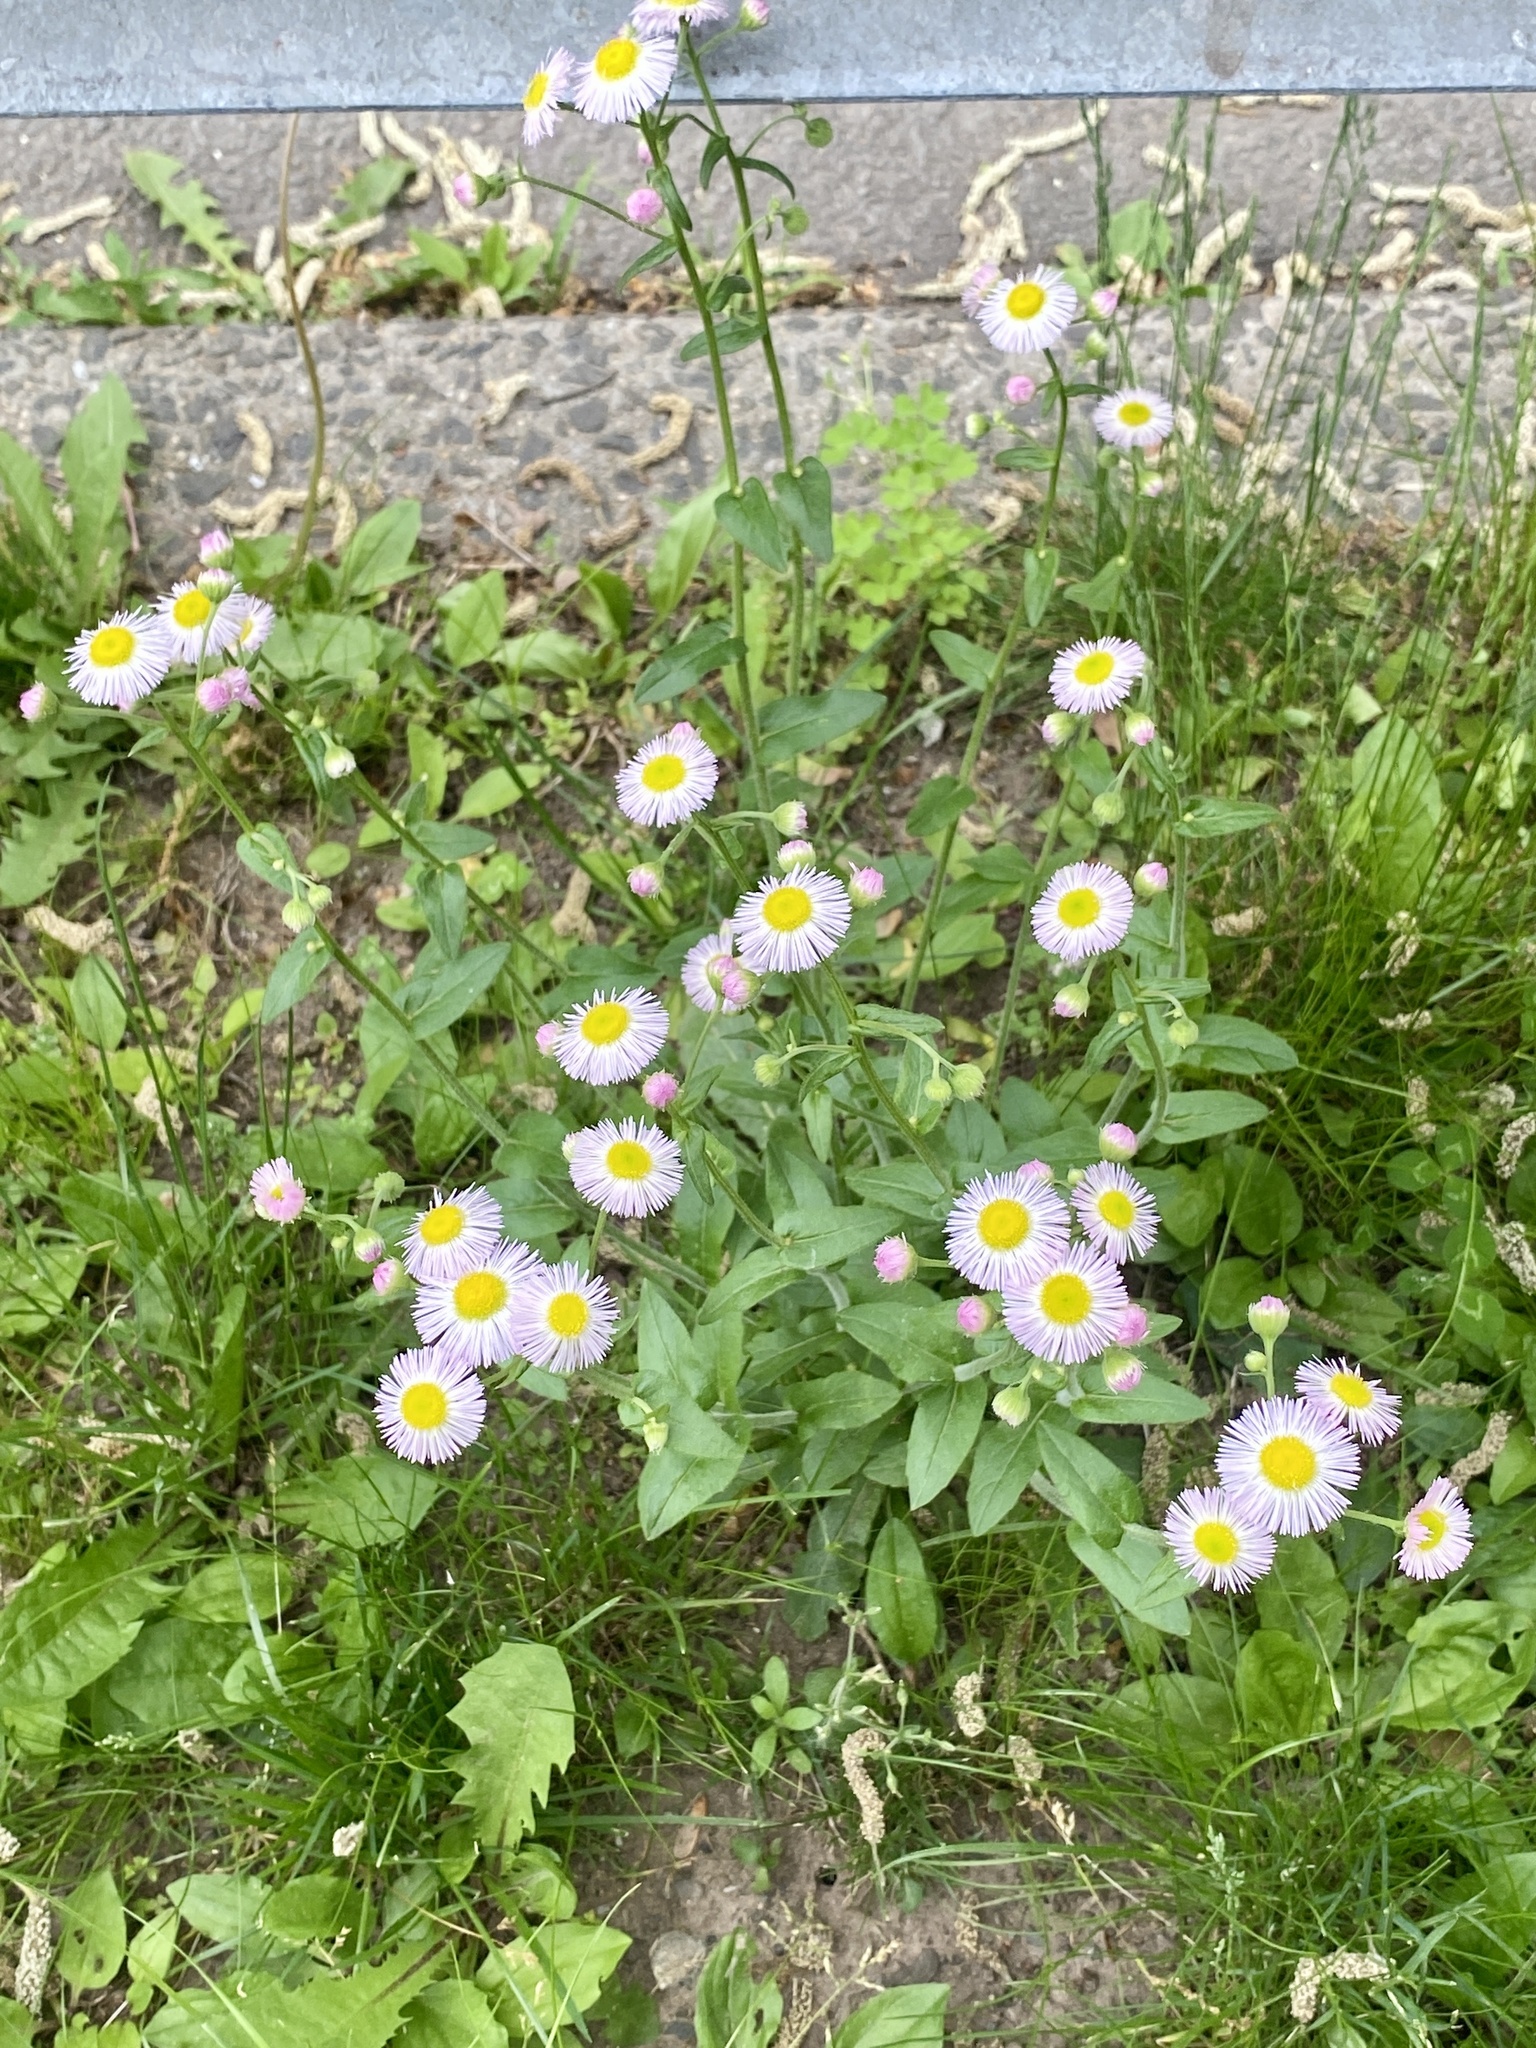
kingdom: Plantae
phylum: Tracheophyta
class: Magnoliopsida
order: Asterales
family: Asteraceae
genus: Erigeron
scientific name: Erigeron philadelphicus
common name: Robin's-plantain
